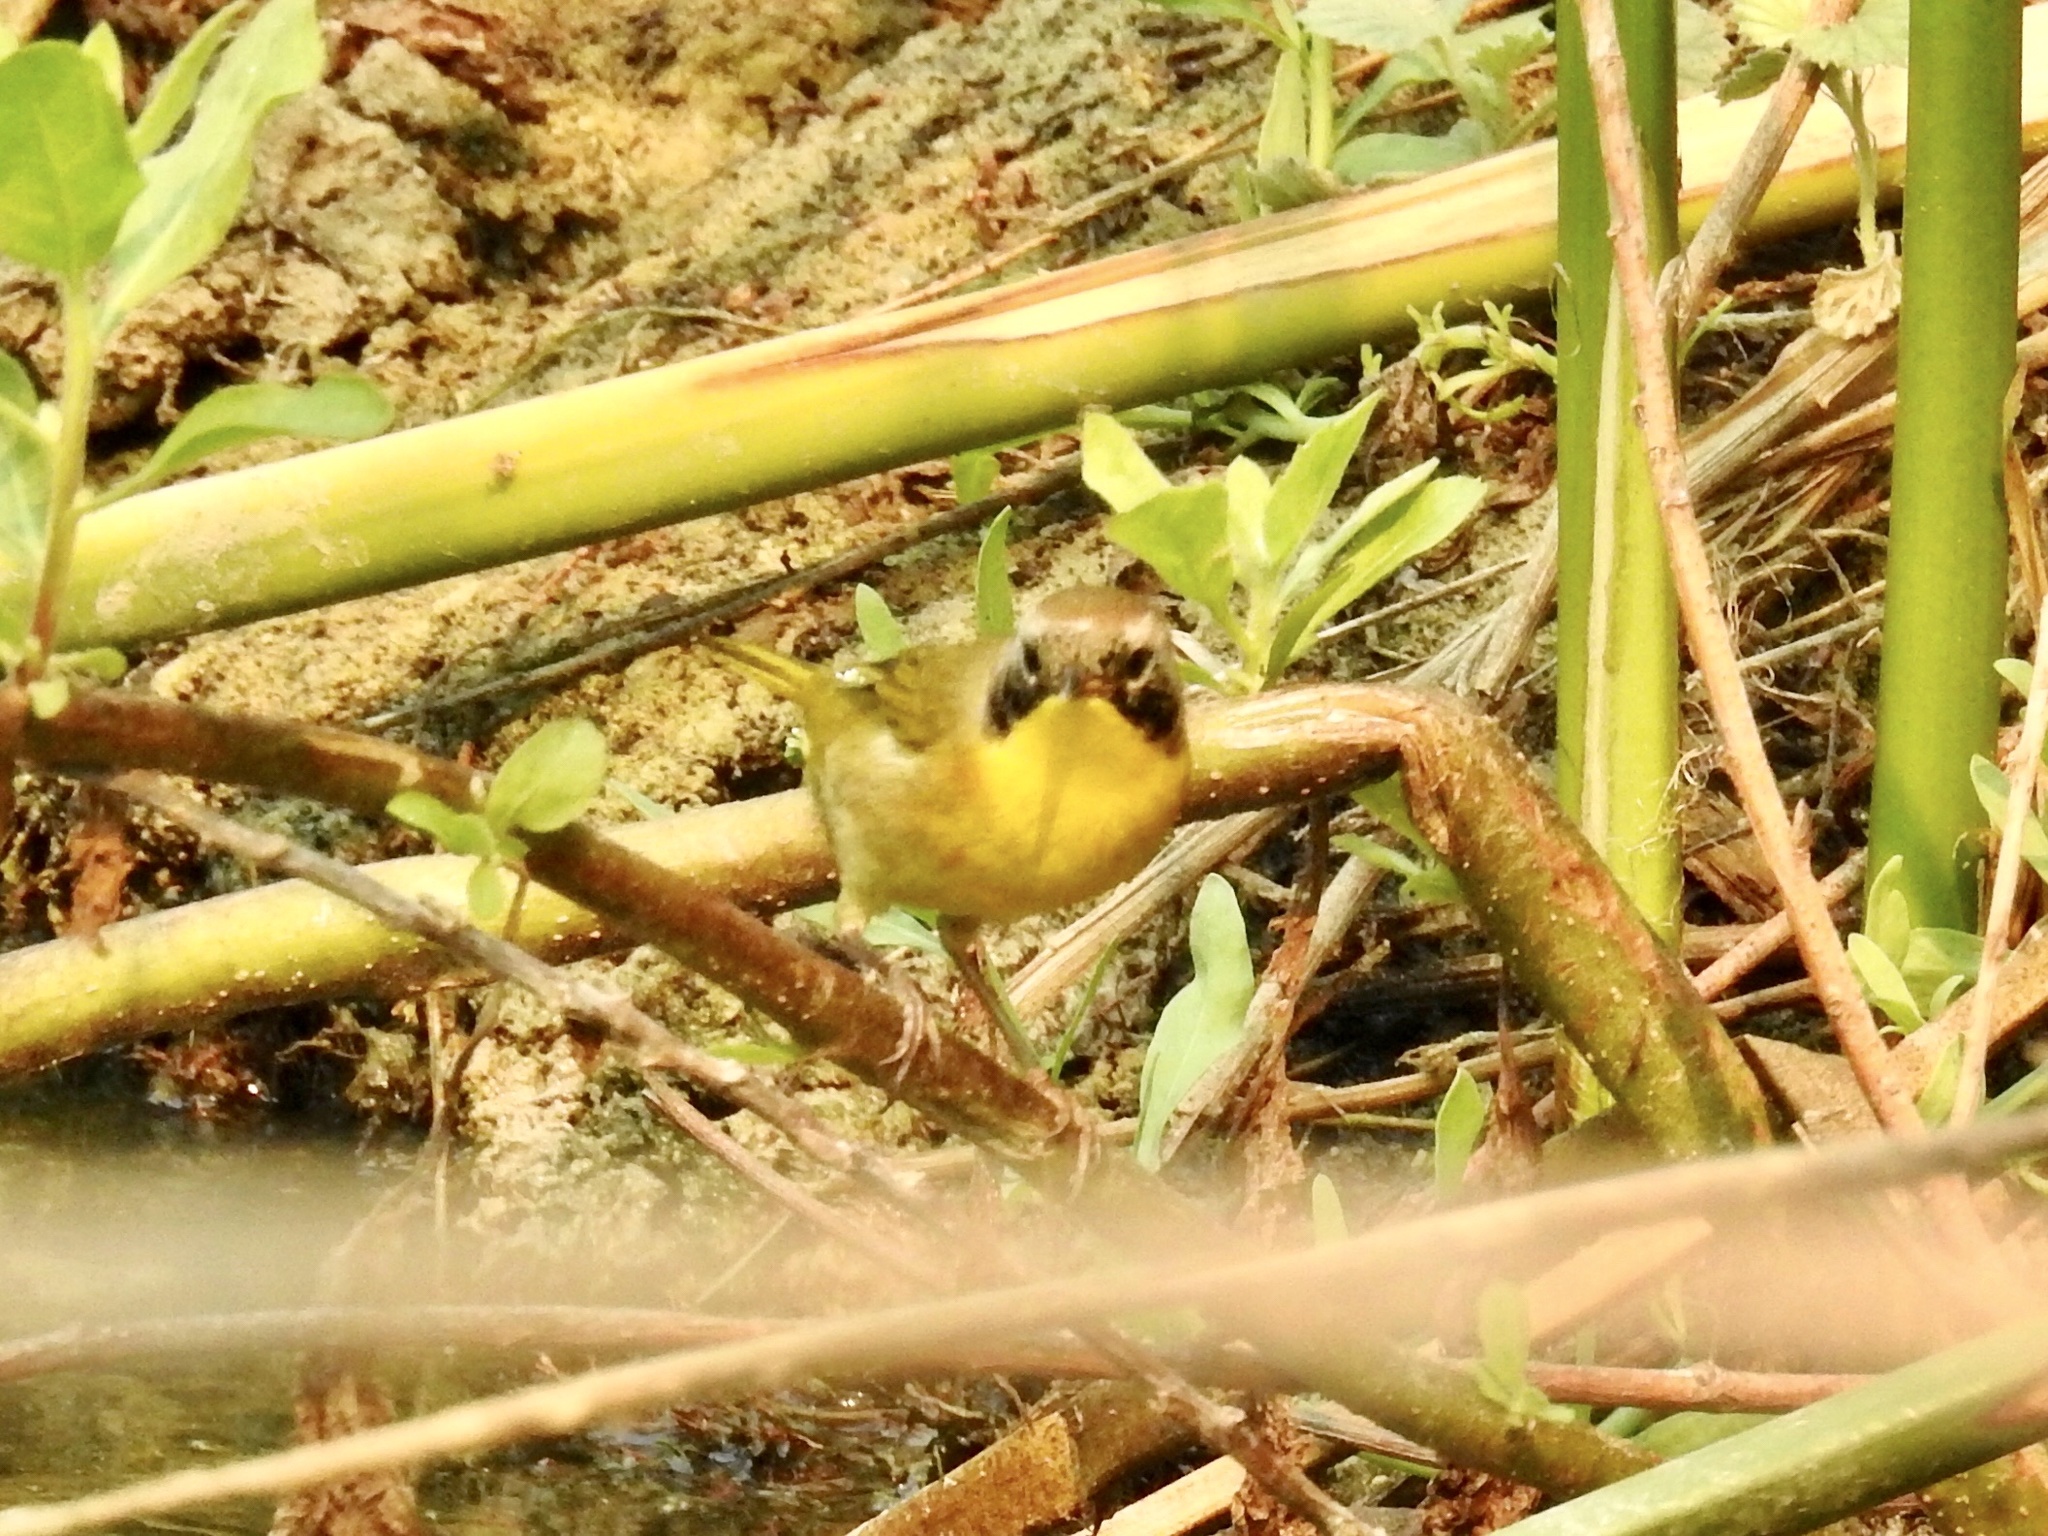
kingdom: Animalia
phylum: Chordata
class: Aves
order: Passeriformes
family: Parulidae
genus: Geothlypis
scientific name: Geothlypis trichas
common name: Common yellowthroat
